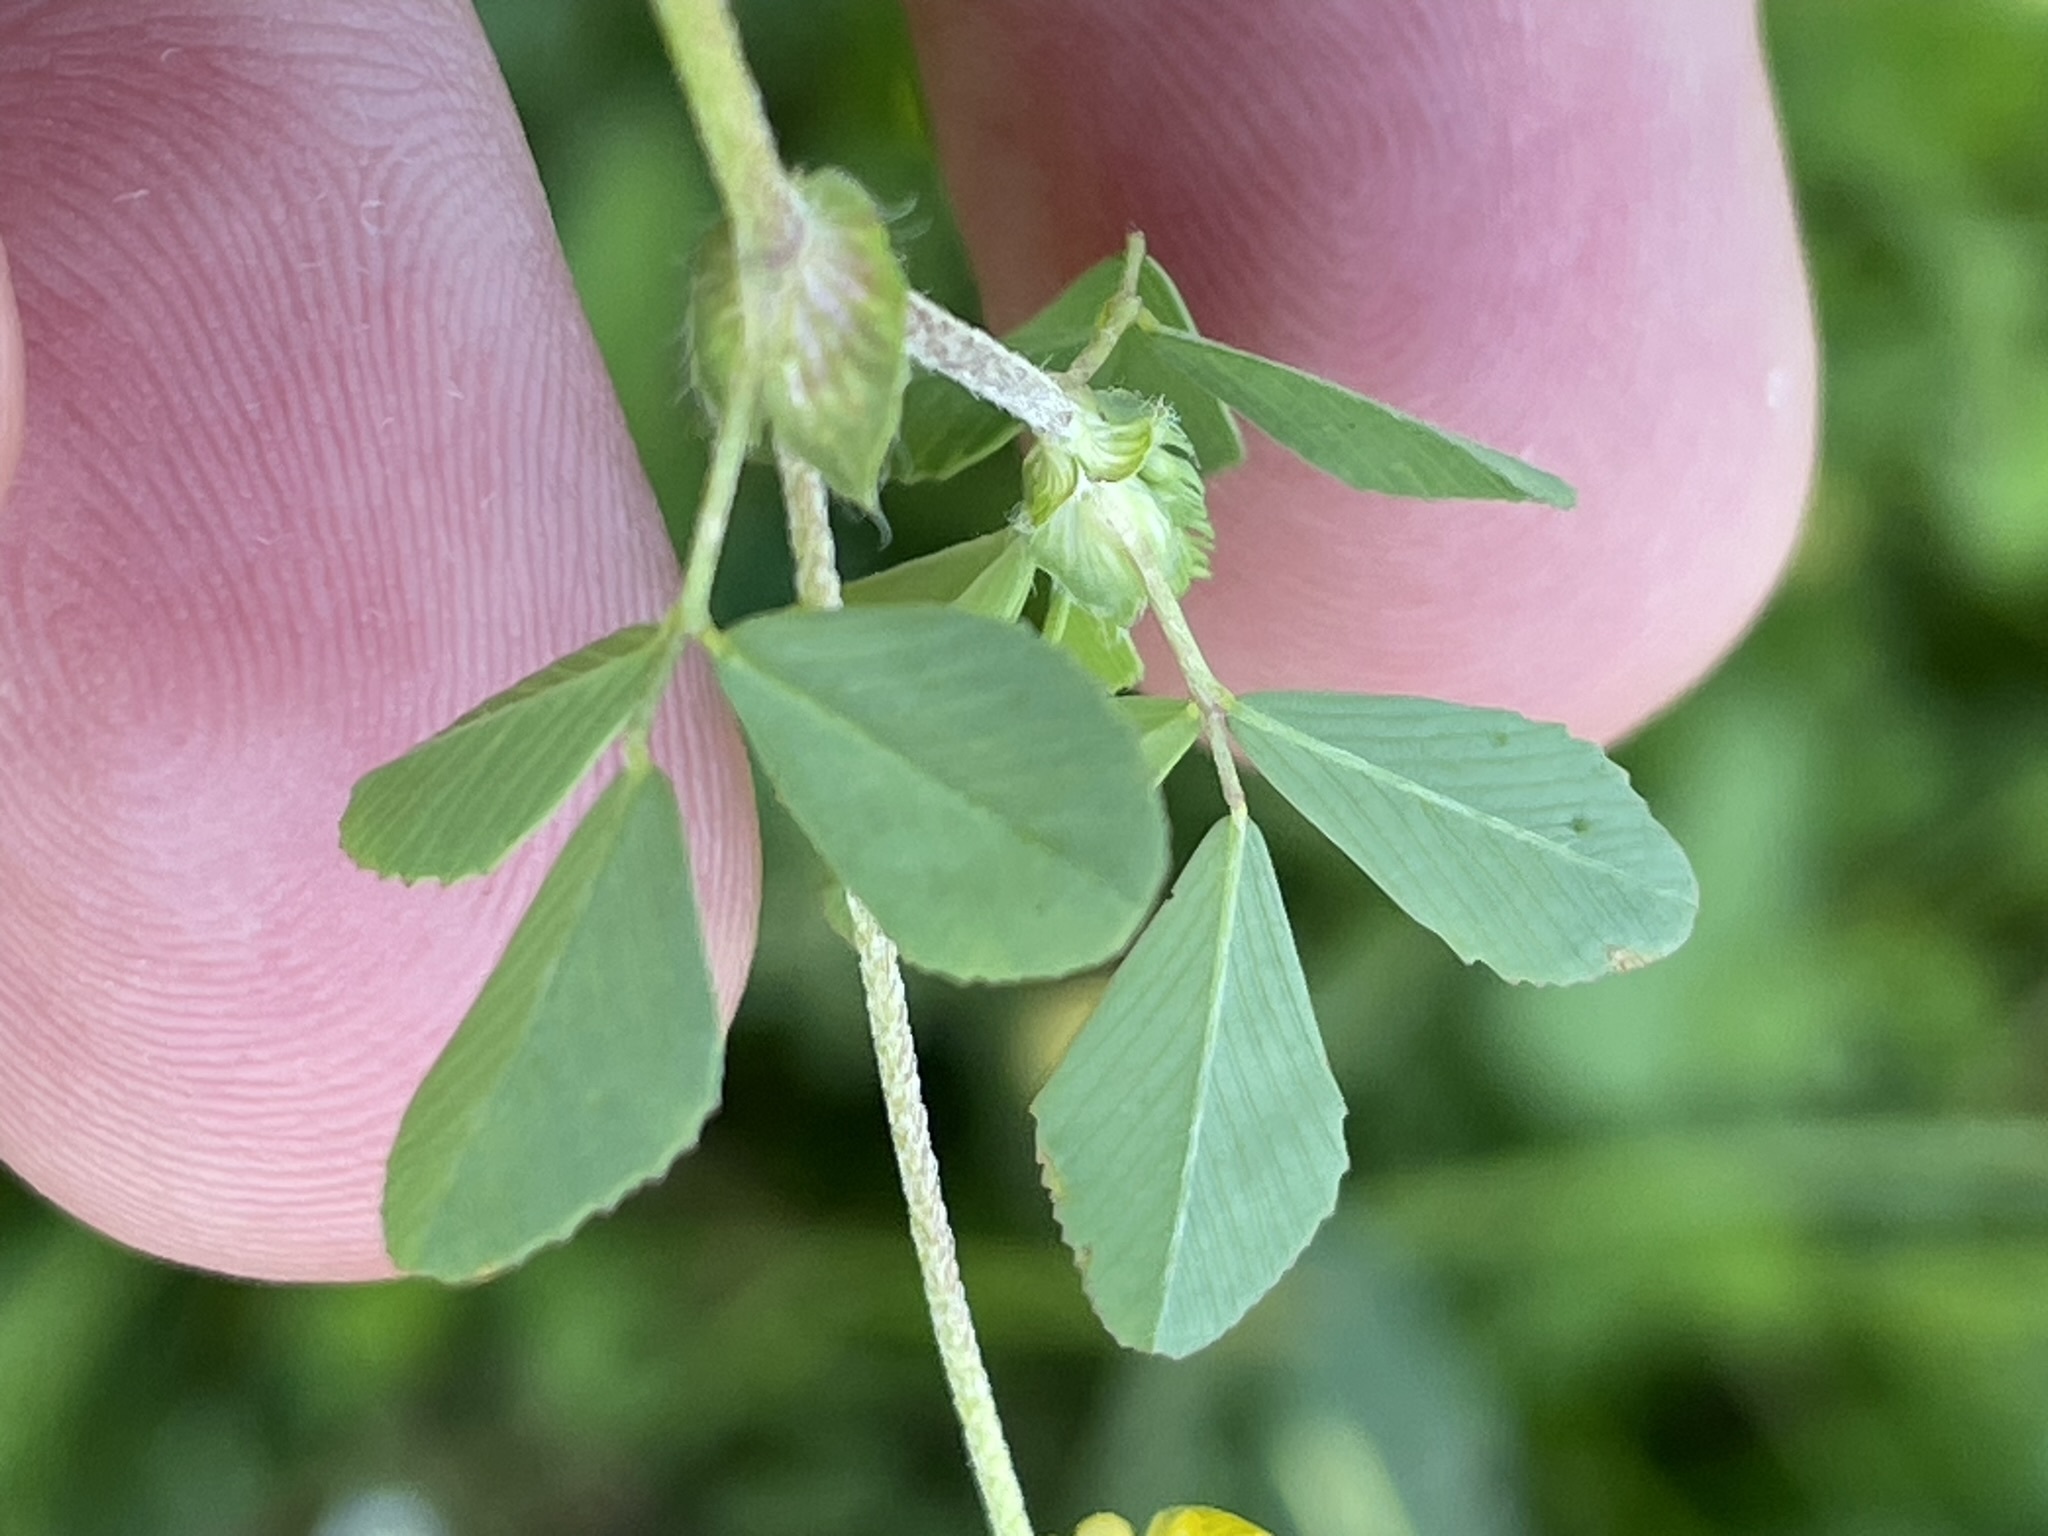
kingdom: Plantae
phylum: Tracheophyta
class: Magnoliopsida
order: Fabales
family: Fabaceae
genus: Trifolium
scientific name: Trifolium campestre
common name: Field clover
